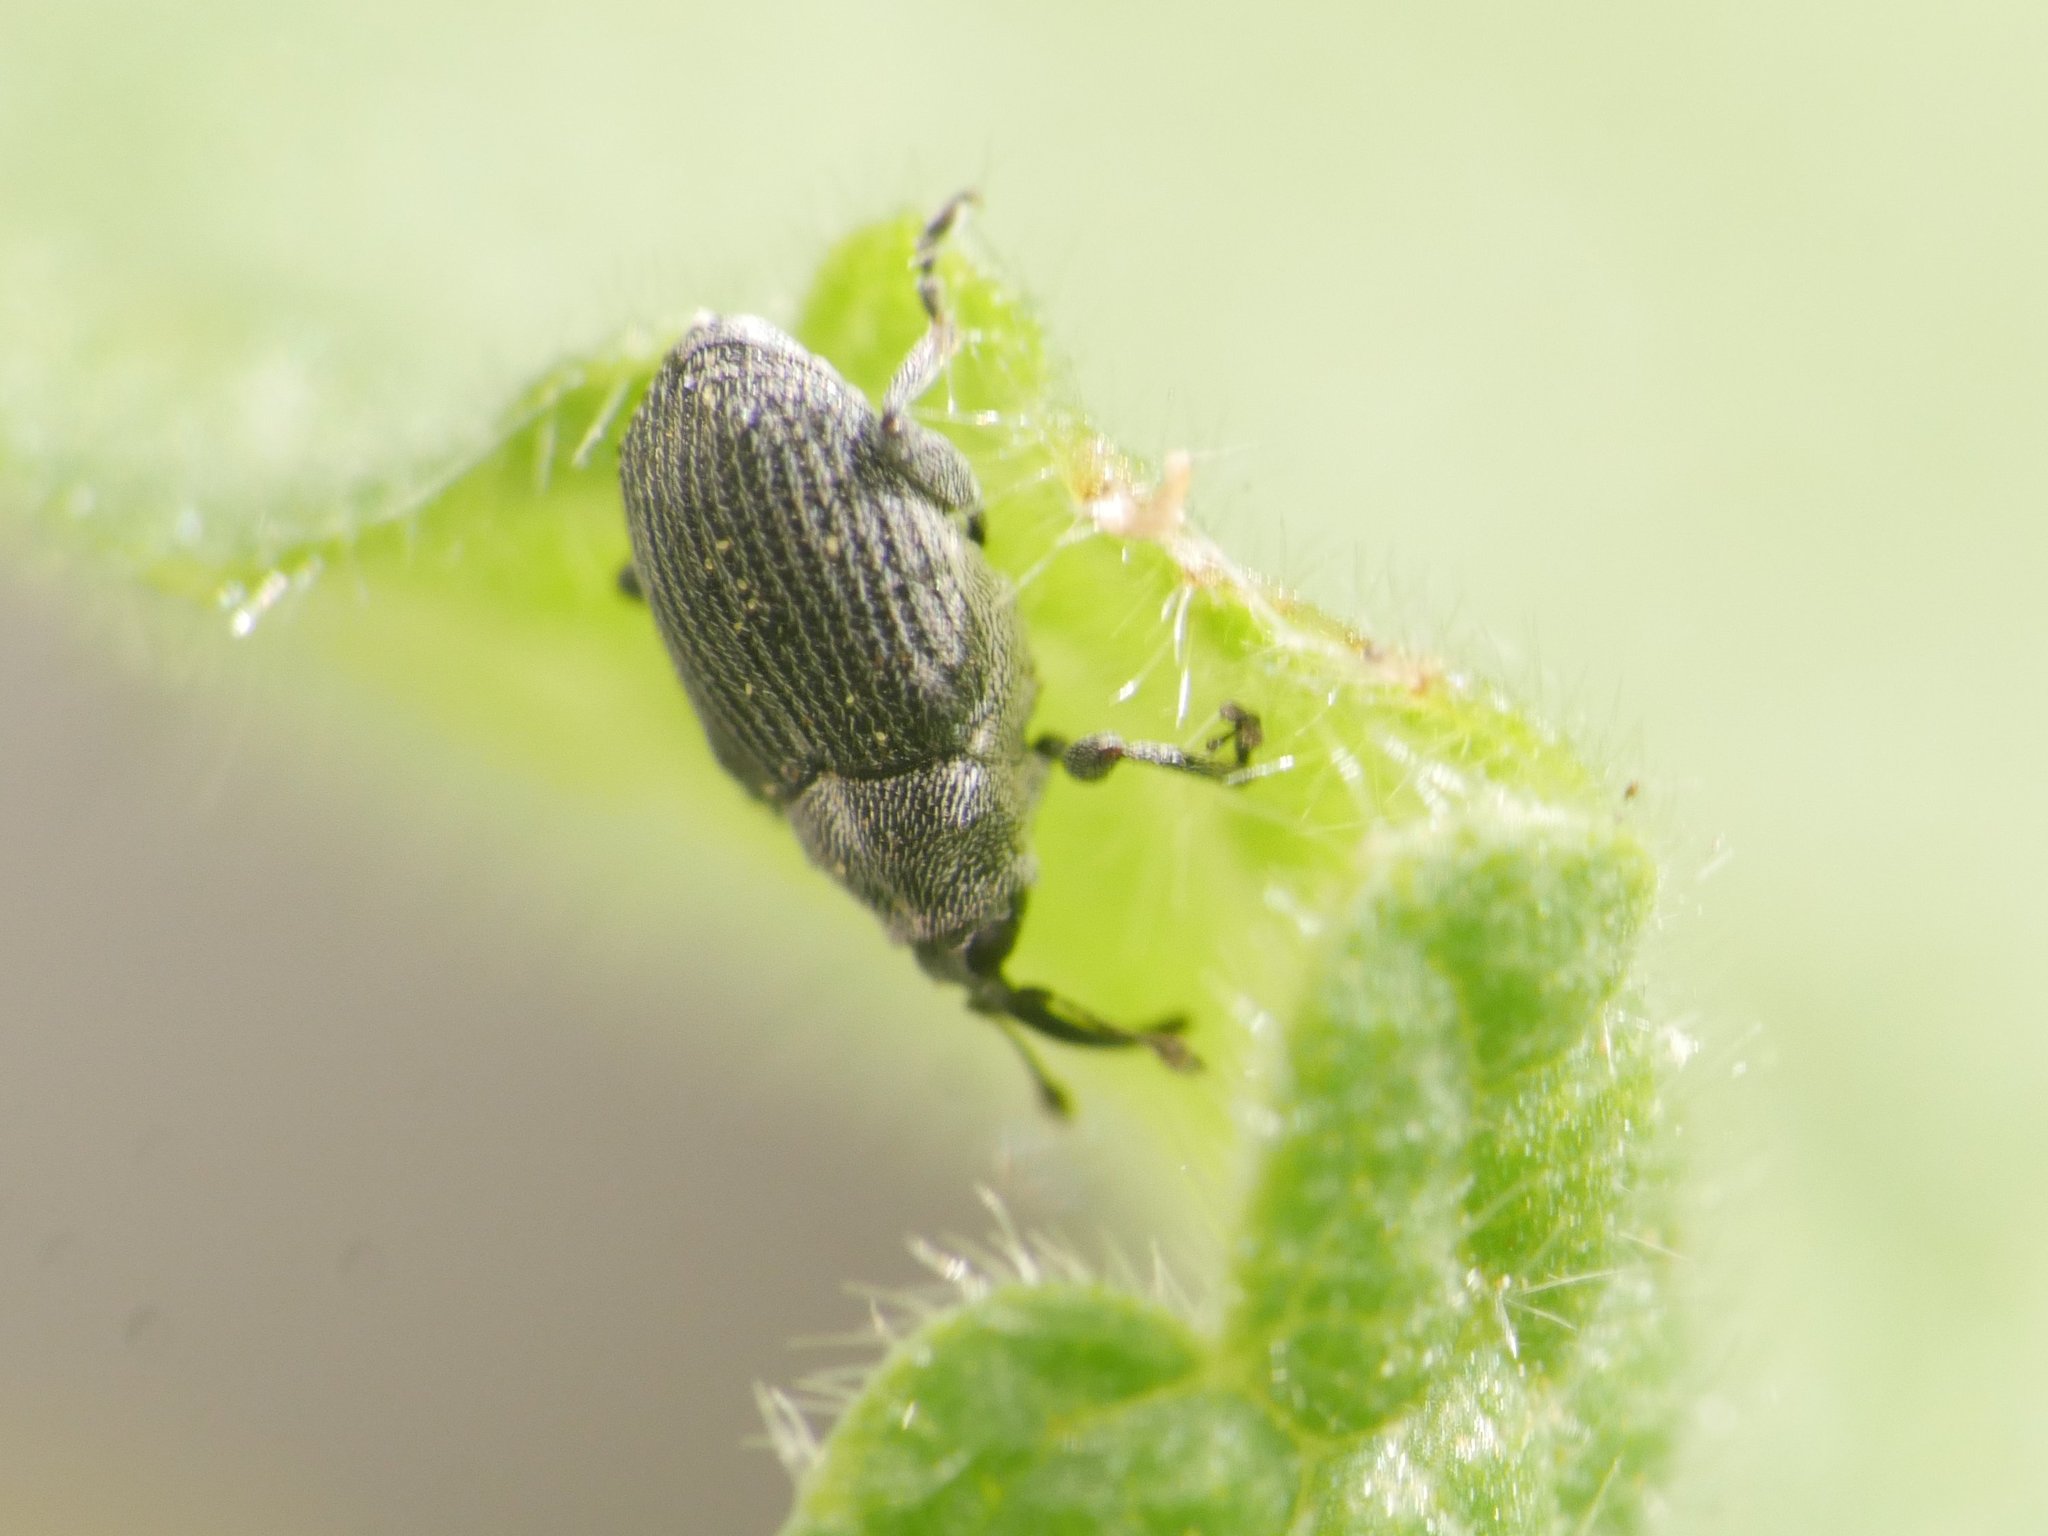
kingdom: Animalia
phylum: Arthropoda
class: Insecta
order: Coleoptera
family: Curculionidae
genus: Ceutorhynchus
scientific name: Ceutorhynchus obstrictus
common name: Cabbage seed weevil
